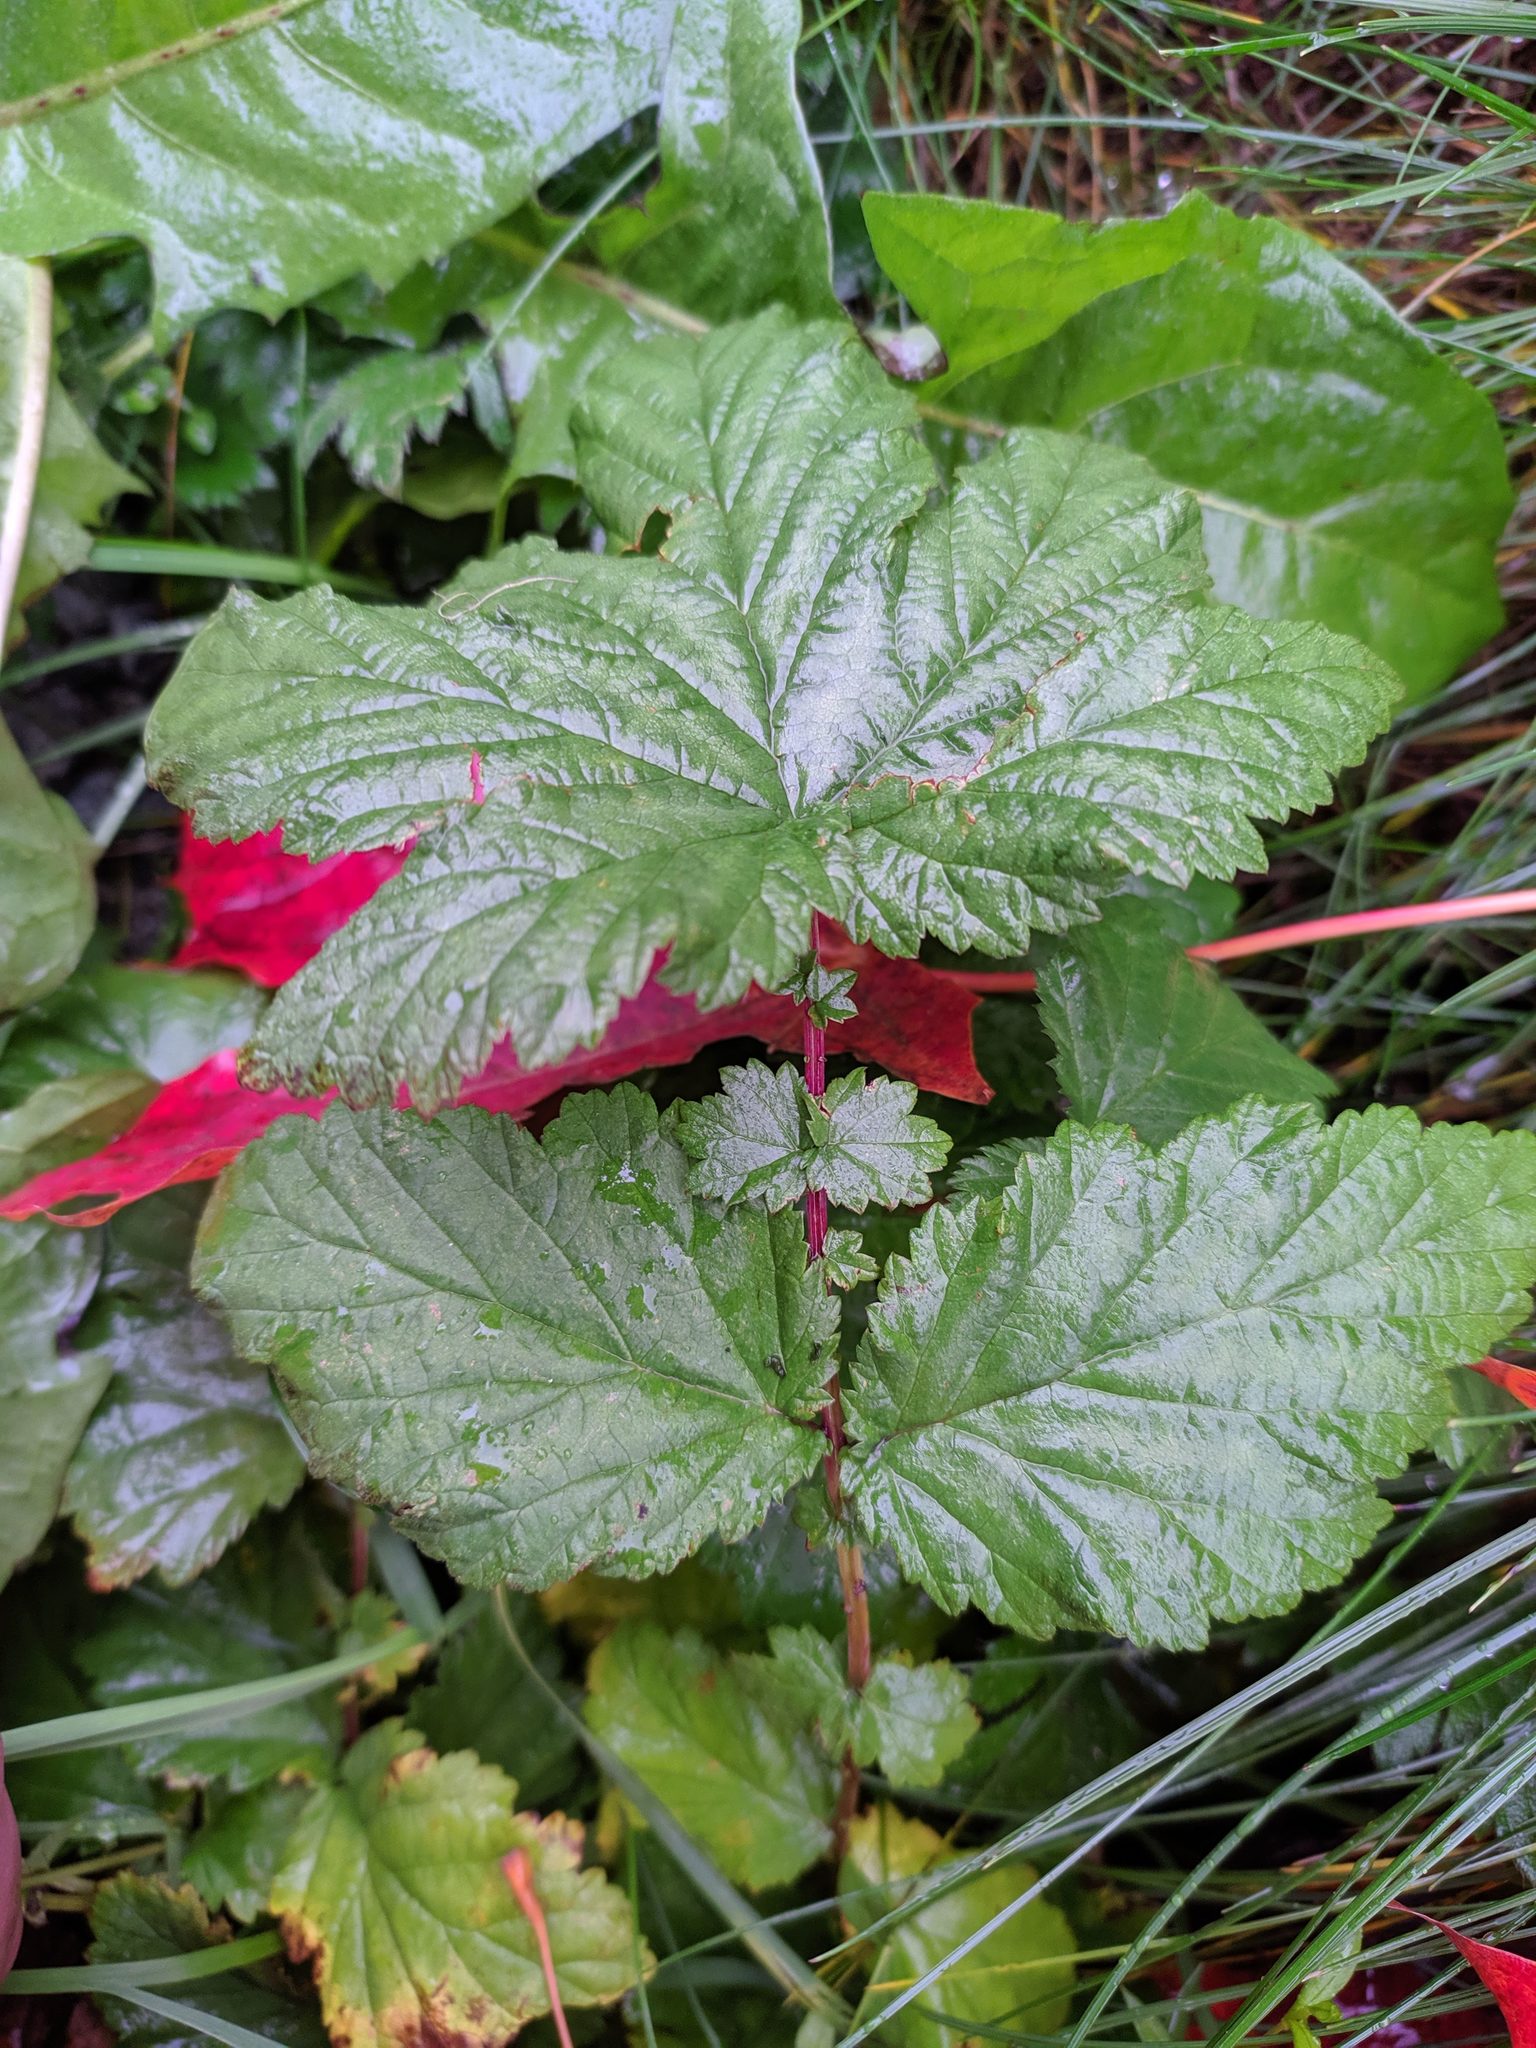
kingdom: Plantae
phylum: Tracheophyta
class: Magnoliopsida
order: Rosales
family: Rosaceae
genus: Filipendula
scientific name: Filipendula ulmaria
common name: Meadowsweet
